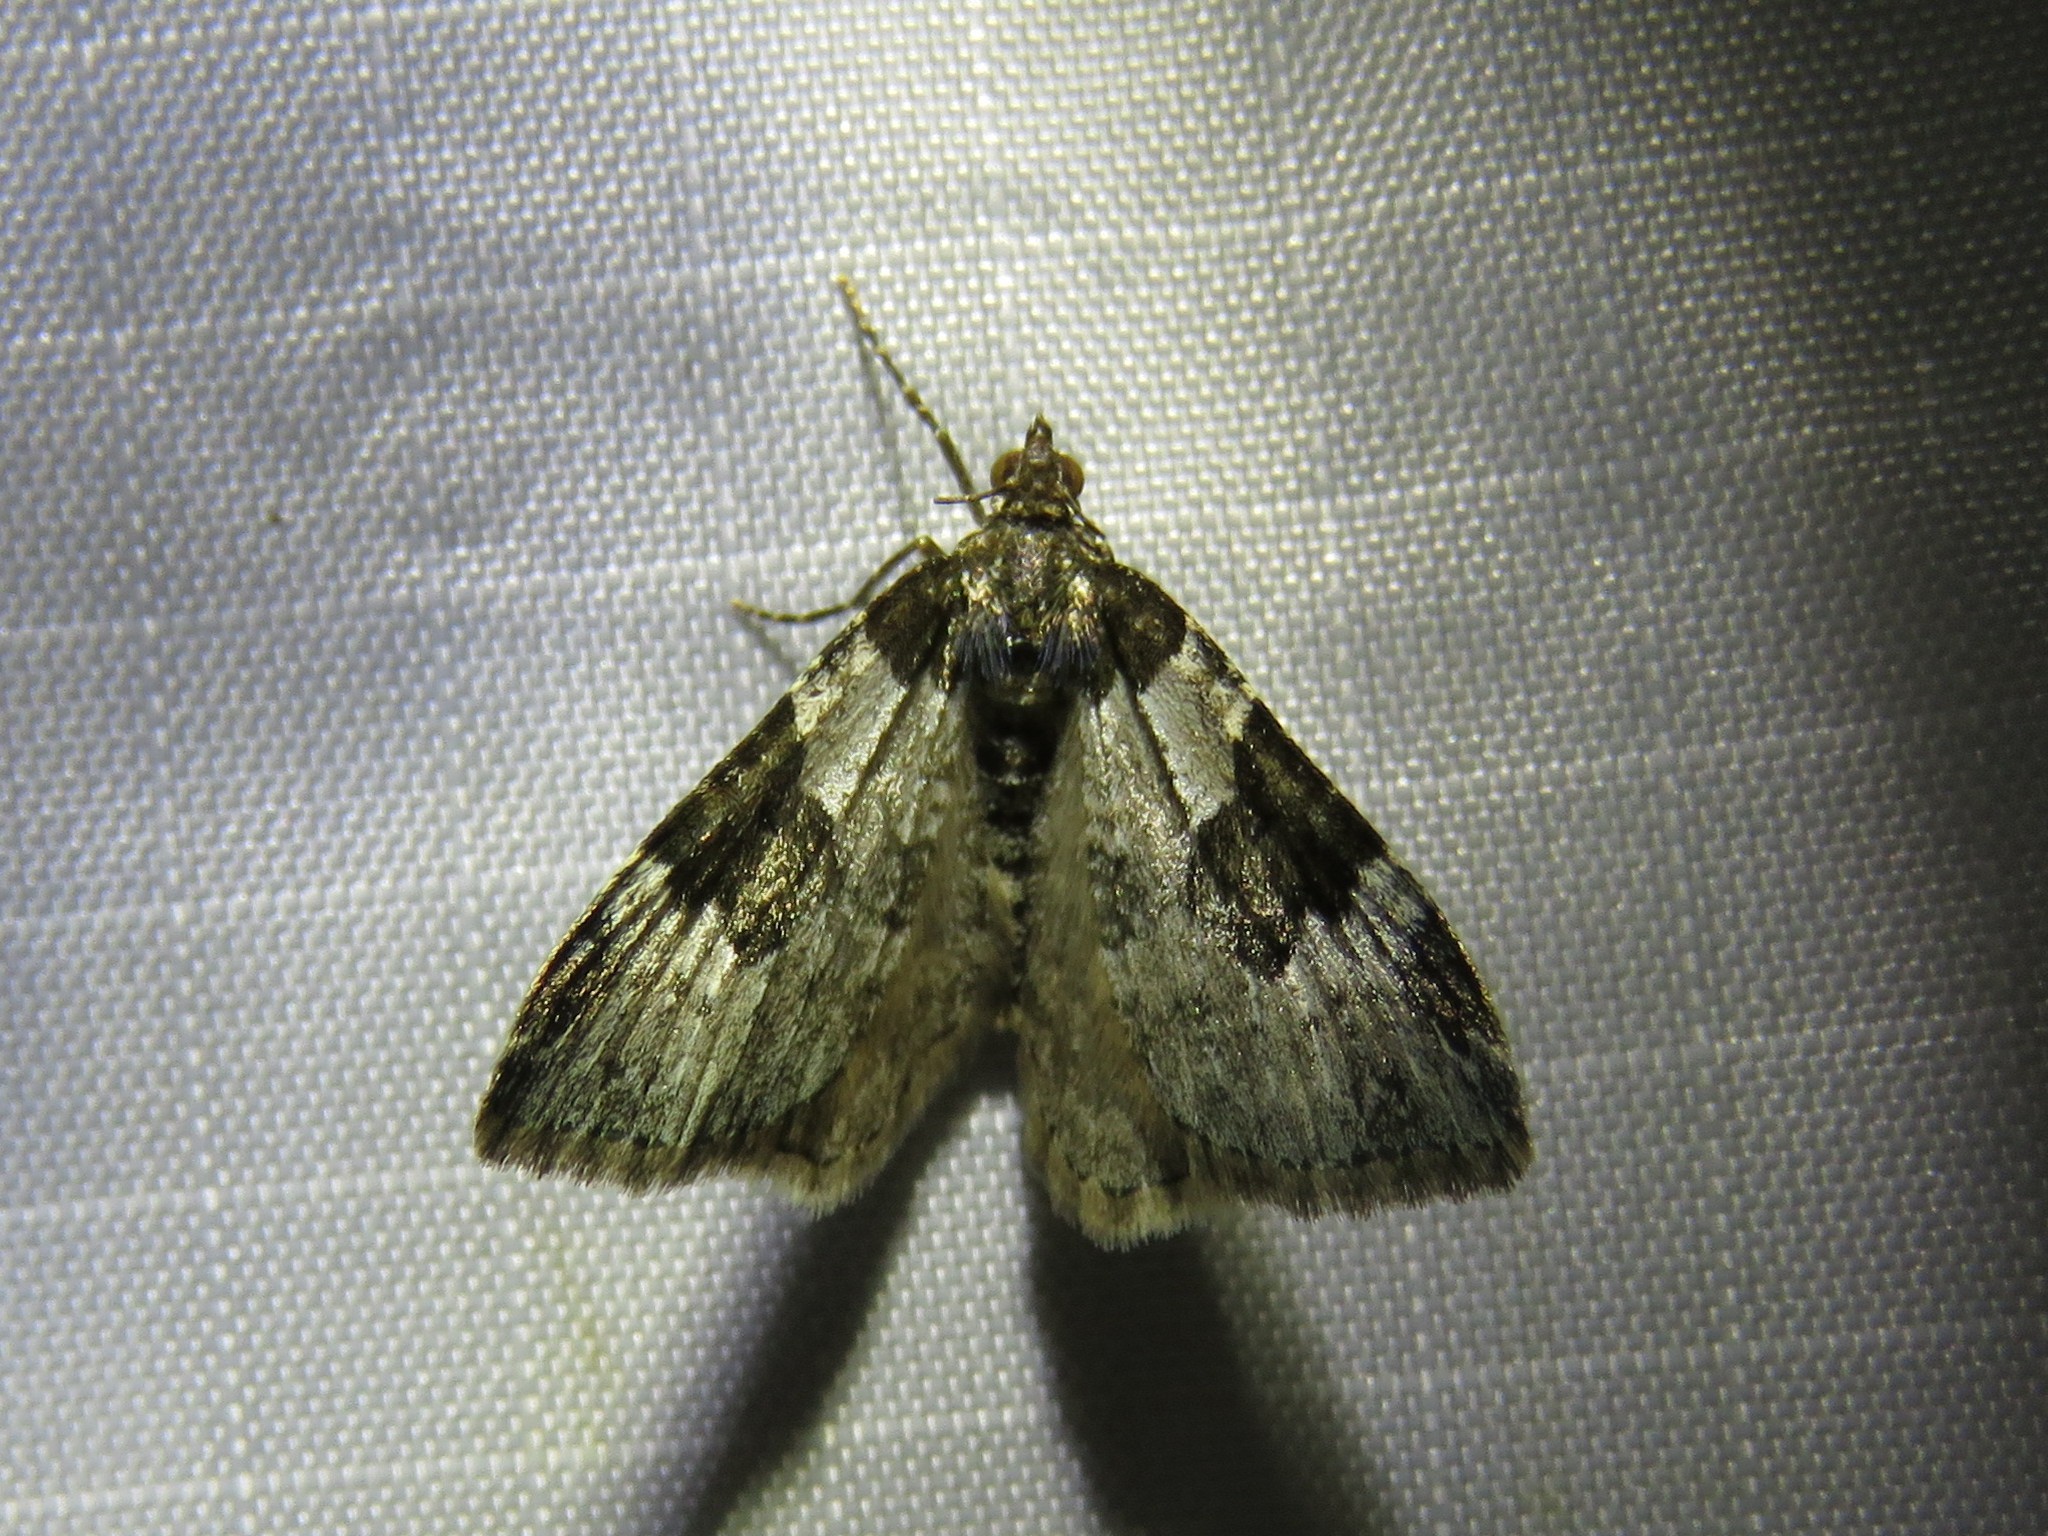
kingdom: Animalia
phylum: Arthropoda
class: Insecta
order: Lepidoptera
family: Geometridae
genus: Xanthorhoe
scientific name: Xanthorhoe fluctuata
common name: Garden carpet
